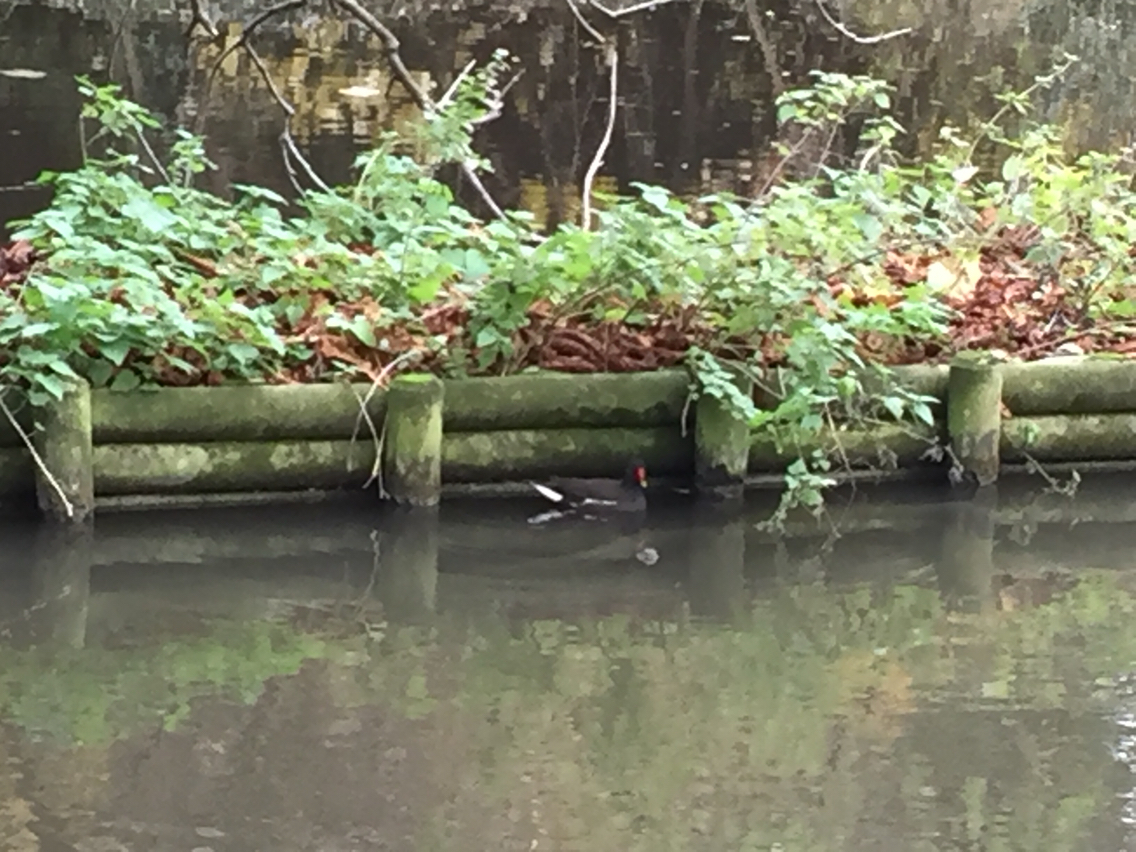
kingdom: Animalia
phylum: Chordata
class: Aves
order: Gruiformes
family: Rallidae
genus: Gallinula
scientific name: Gallinula chloropus
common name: Common moorhen
